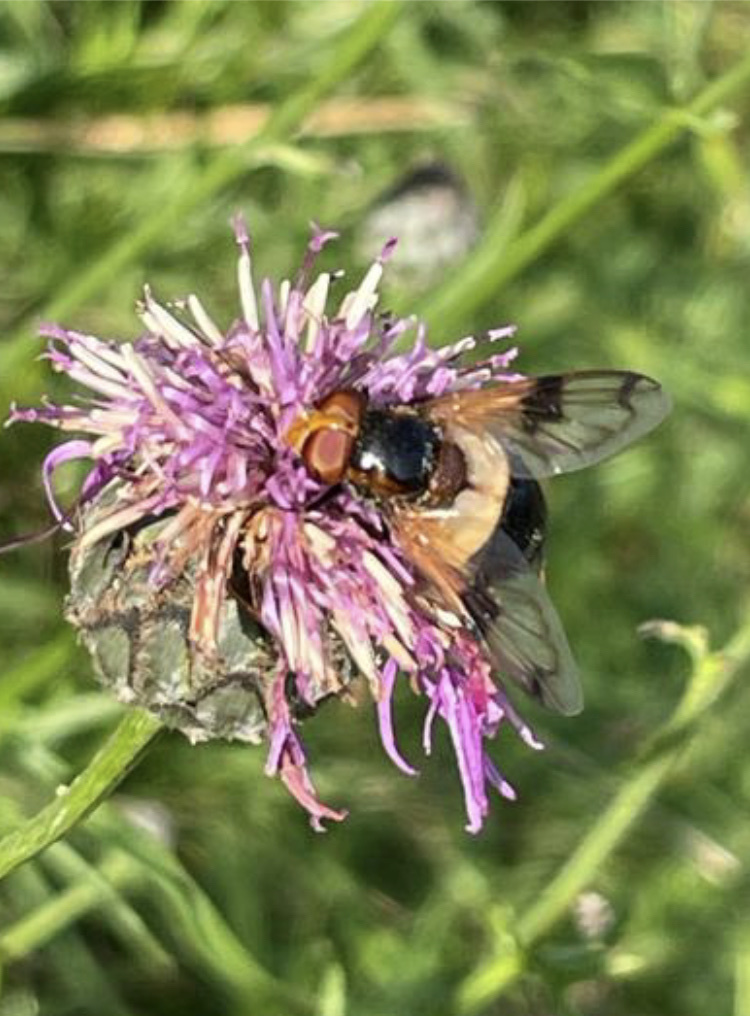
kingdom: Animalia
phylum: Arthropoda
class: Insecta
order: Diptera
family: Syrphidae
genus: Volucella
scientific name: Volucella pellucens
